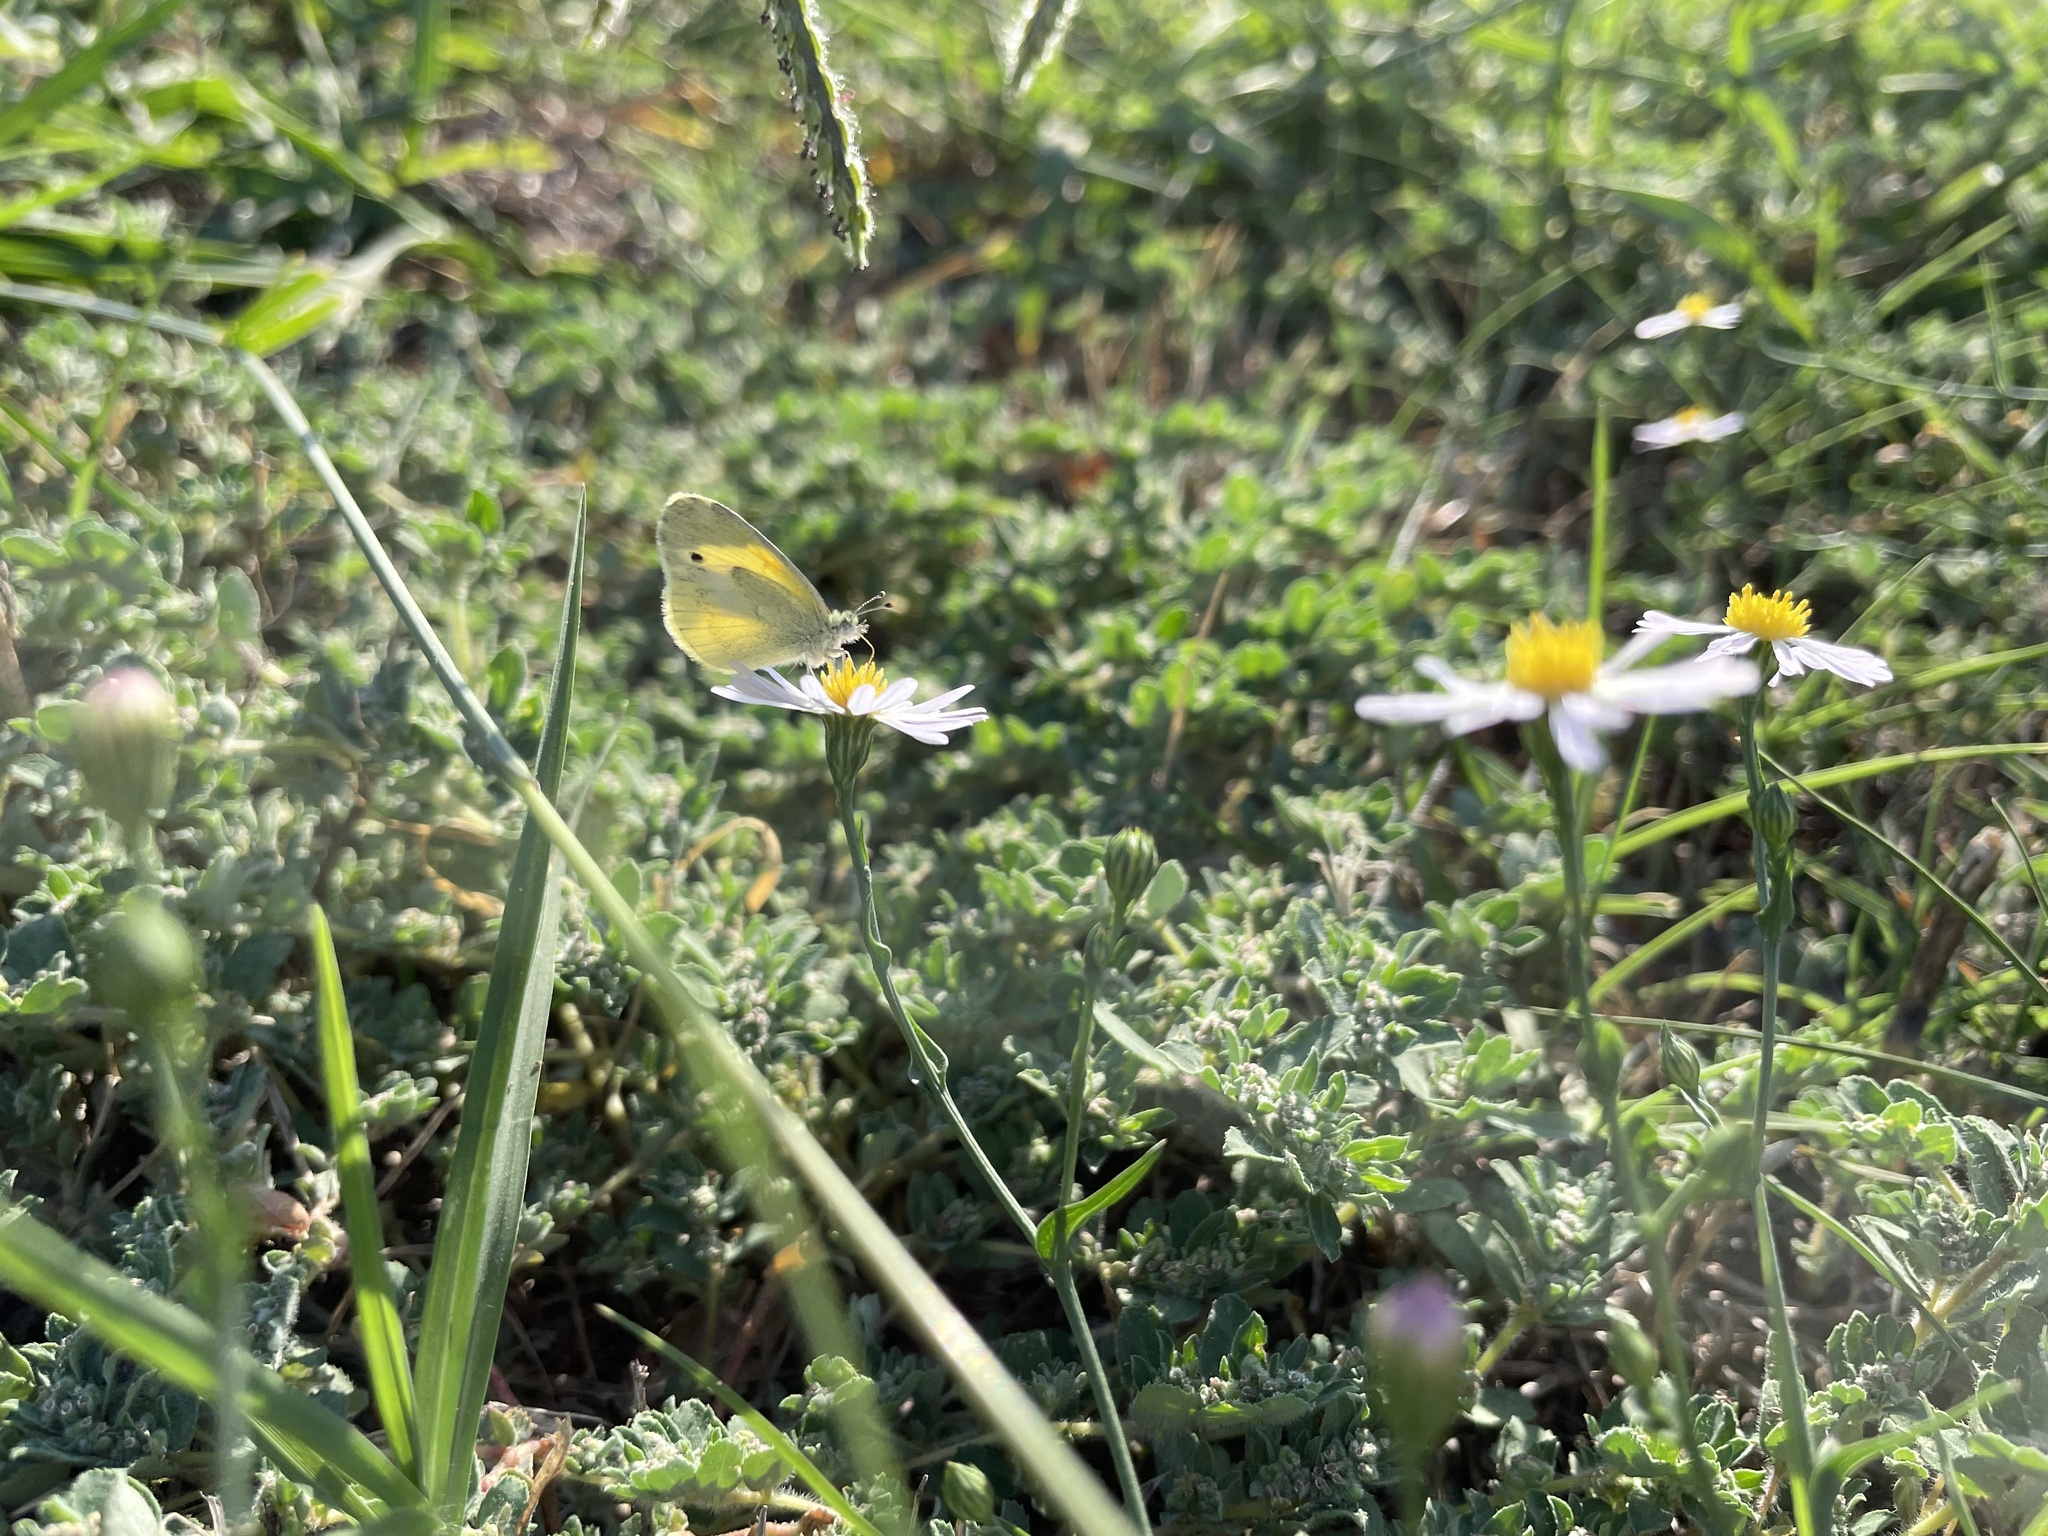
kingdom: Animalia
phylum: Arthropoda
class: Insecta
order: Lepidoptera
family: Pieridae
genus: Nathalis
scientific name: Nathalis iole
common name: Dainty sulphur
